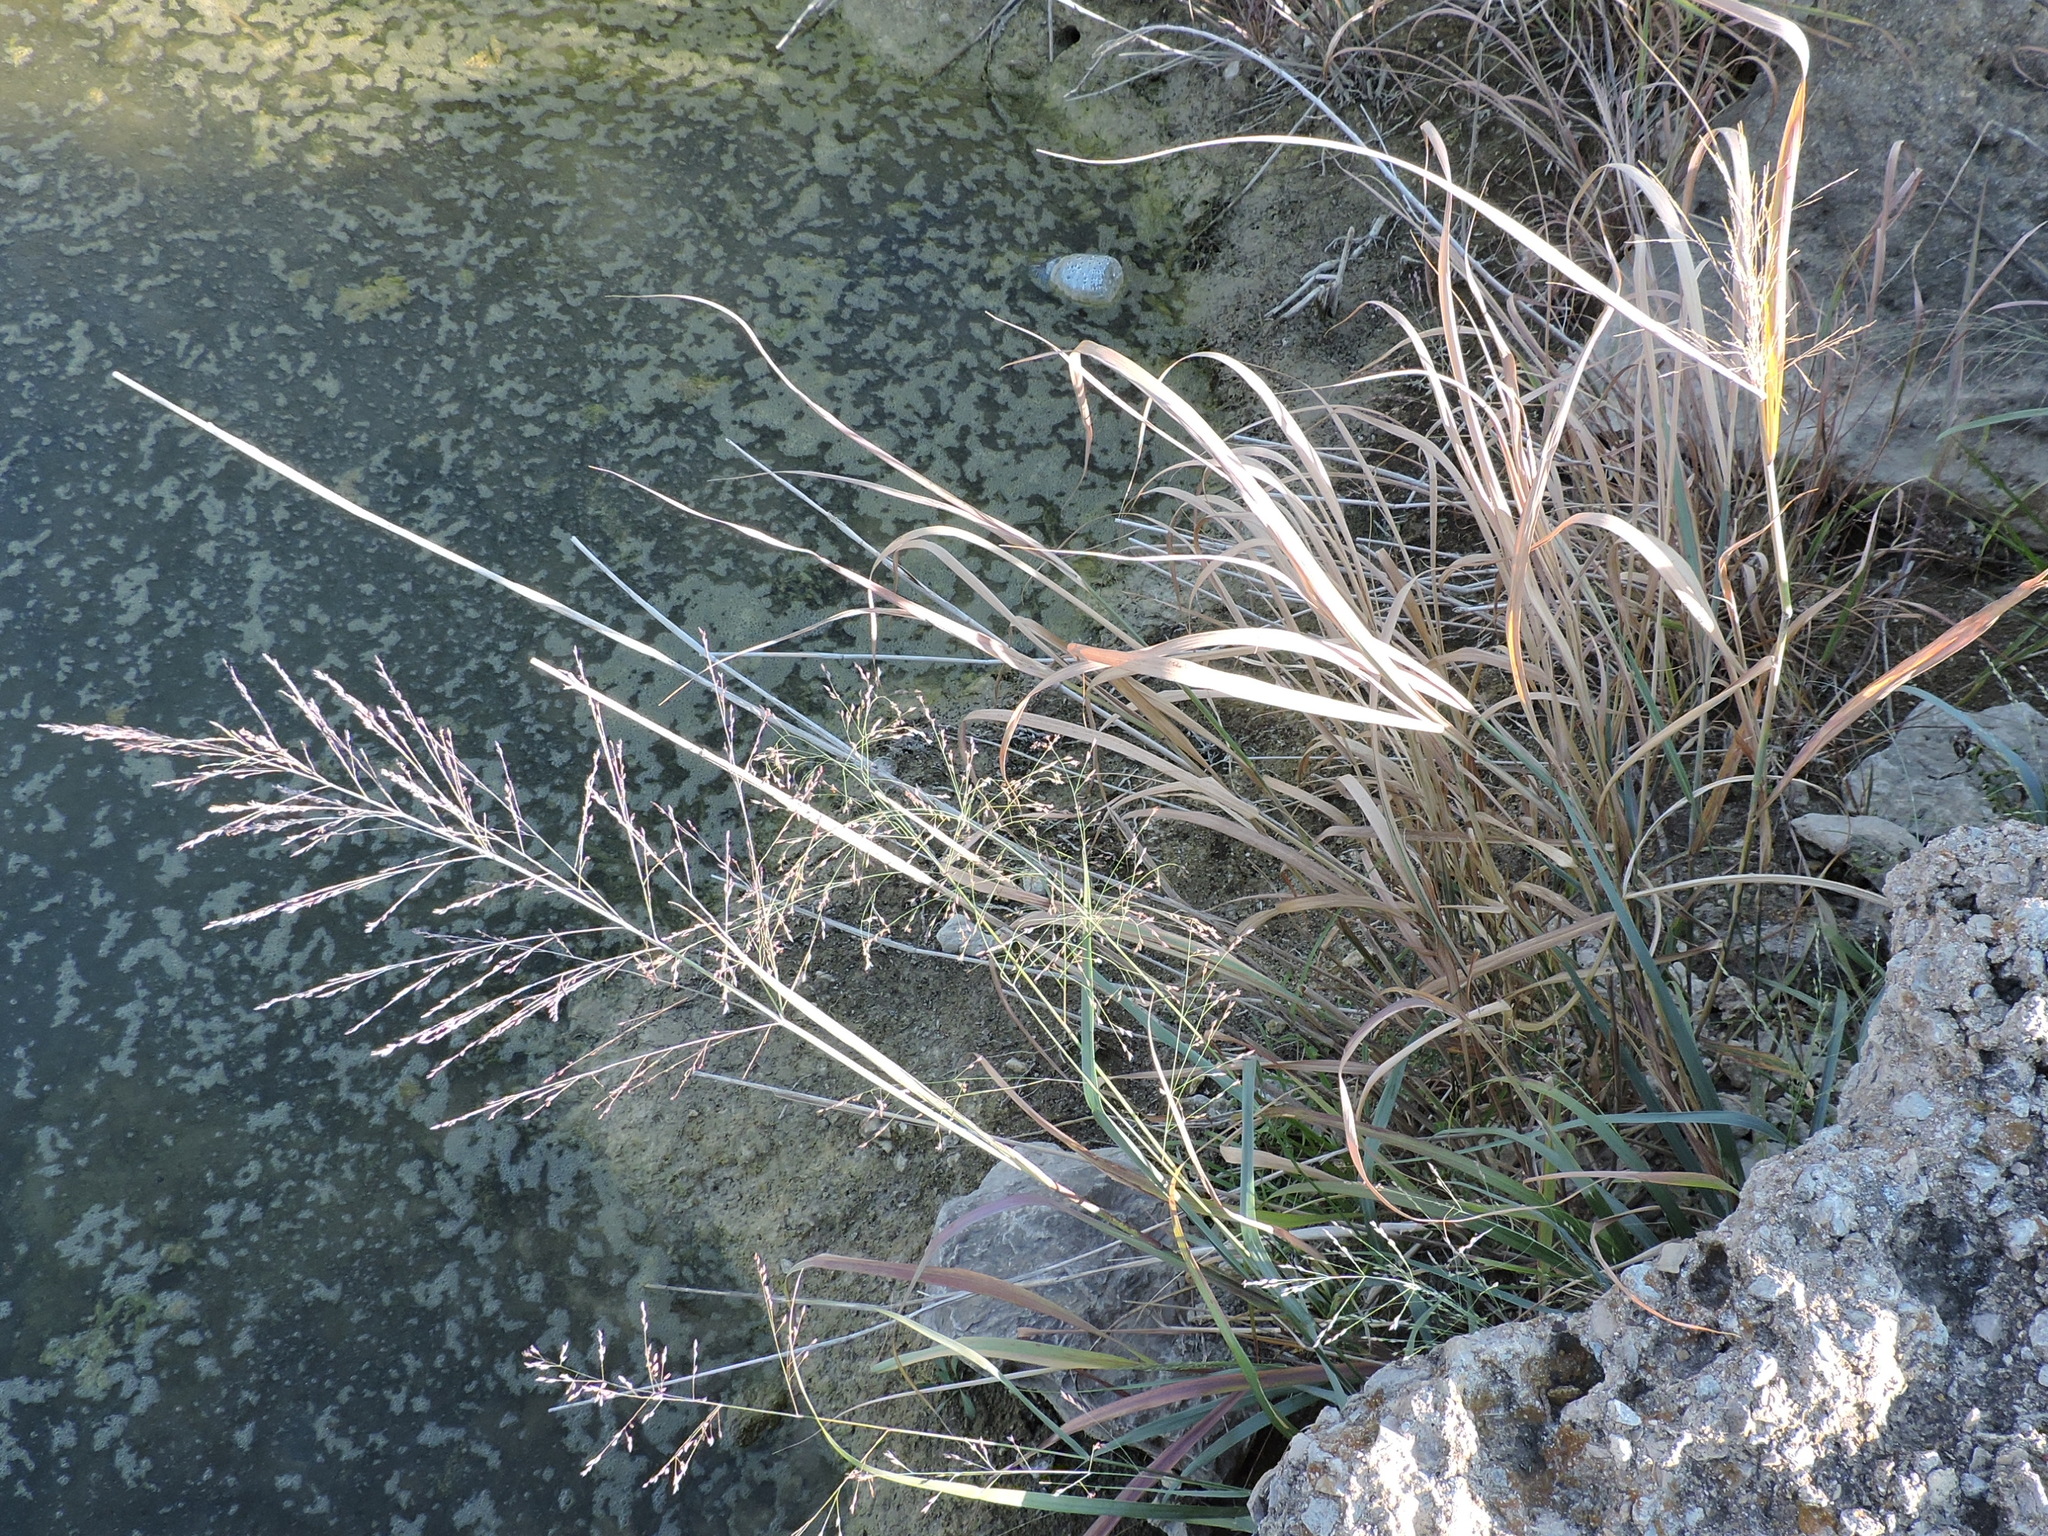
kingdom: Plantae
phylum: Tracheophyta
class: Liliopsida
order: Poales
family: Poaceae
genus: Panicum
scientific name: Panicum virgatum
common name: Switchgrass
